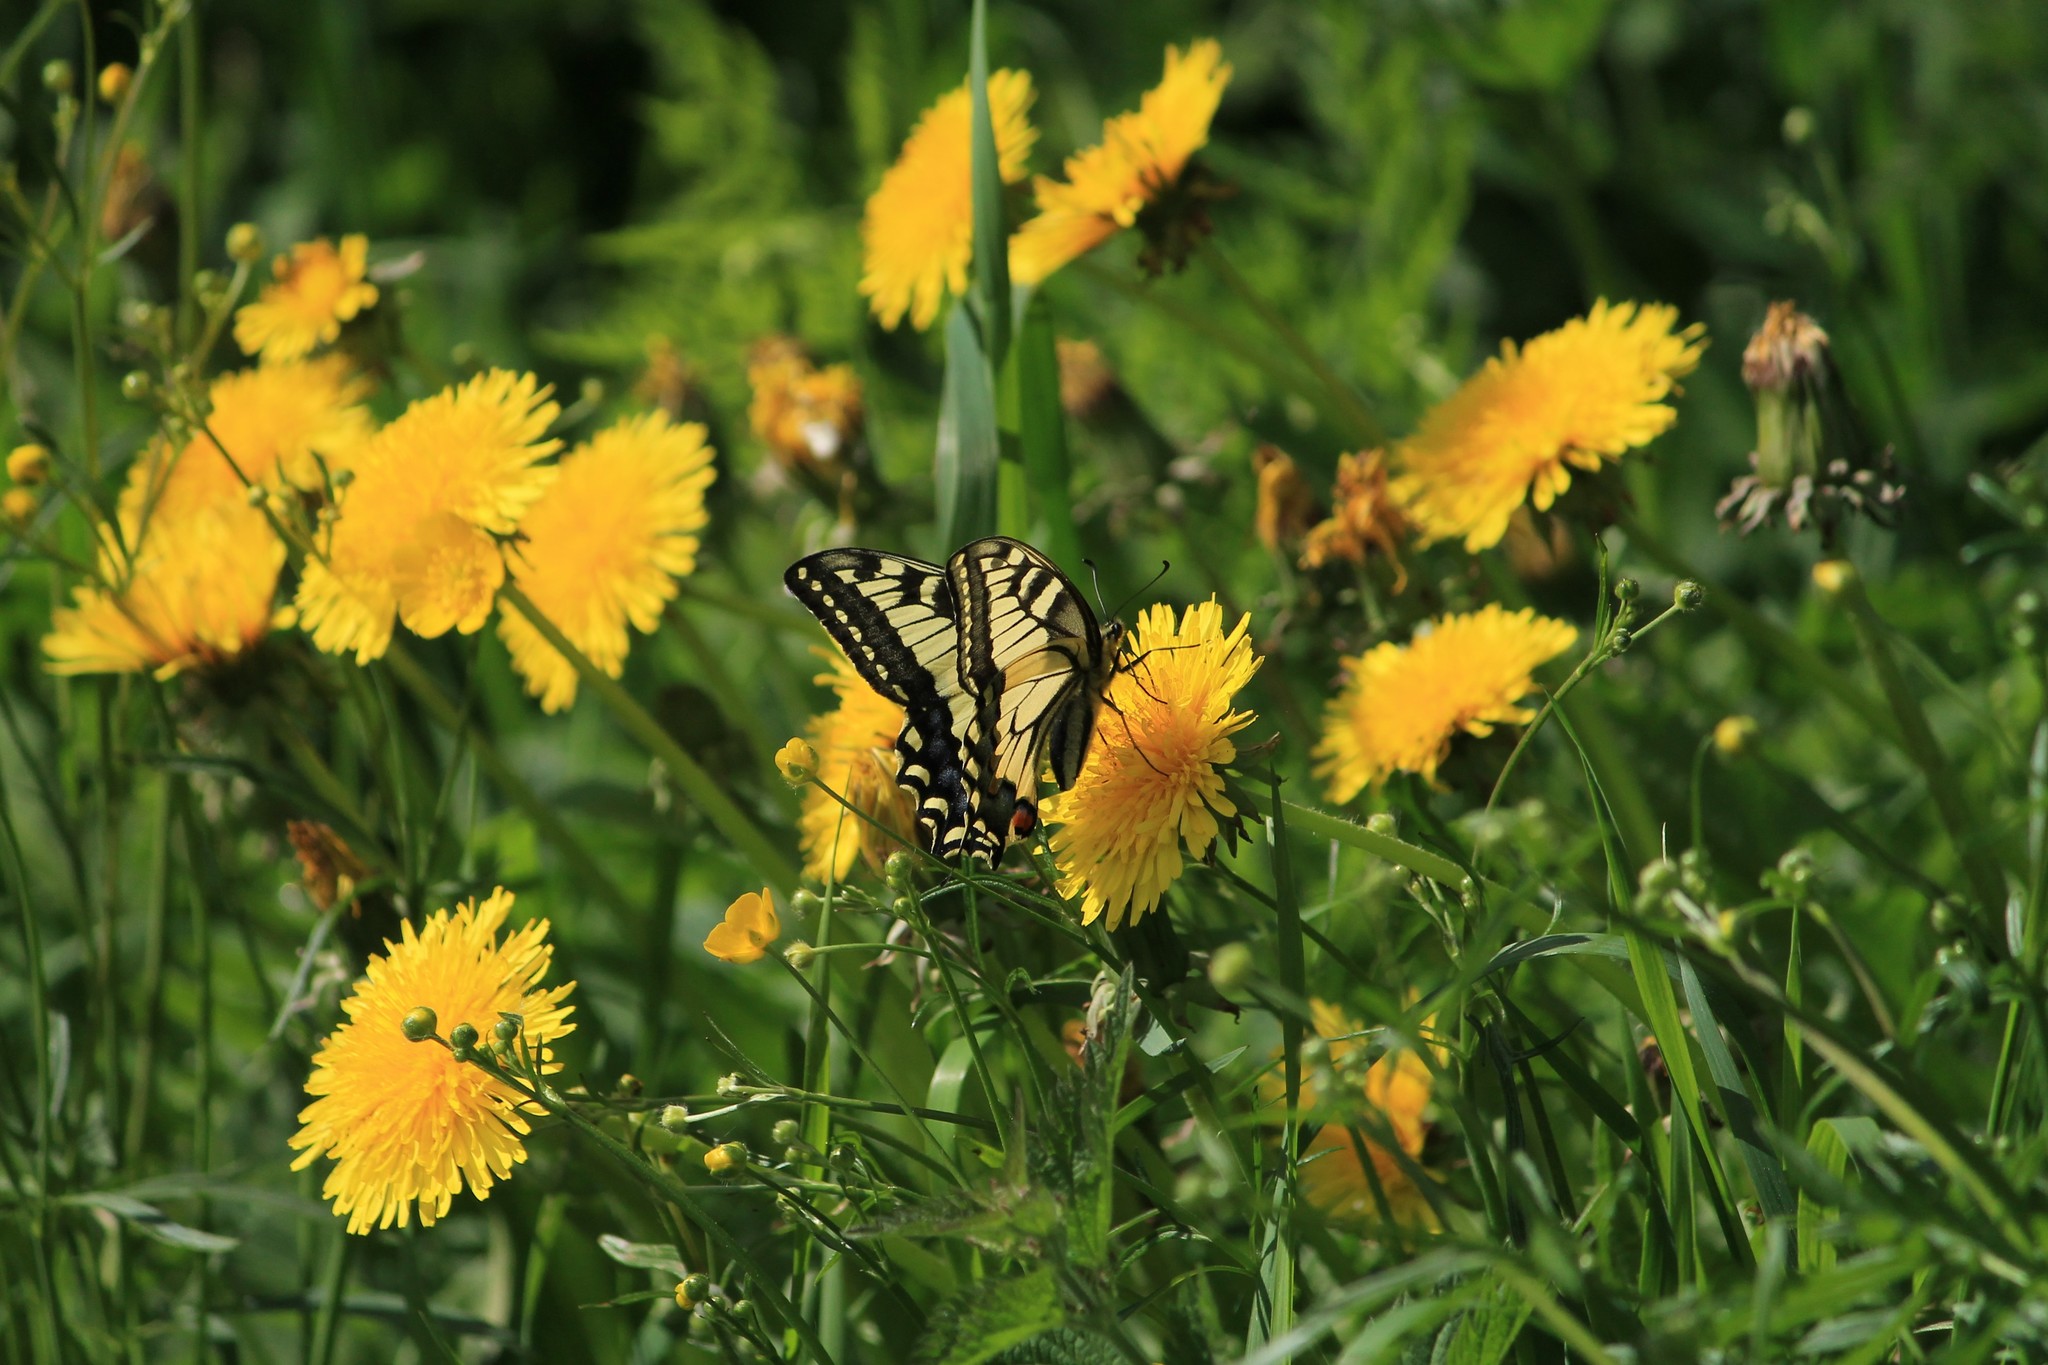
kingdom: Animalia
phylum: Arthropoda
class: Insecta
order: Lepidoptera
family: Papilionidae
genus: Papilio
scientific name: Papilio machaon
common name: Swallowtail
